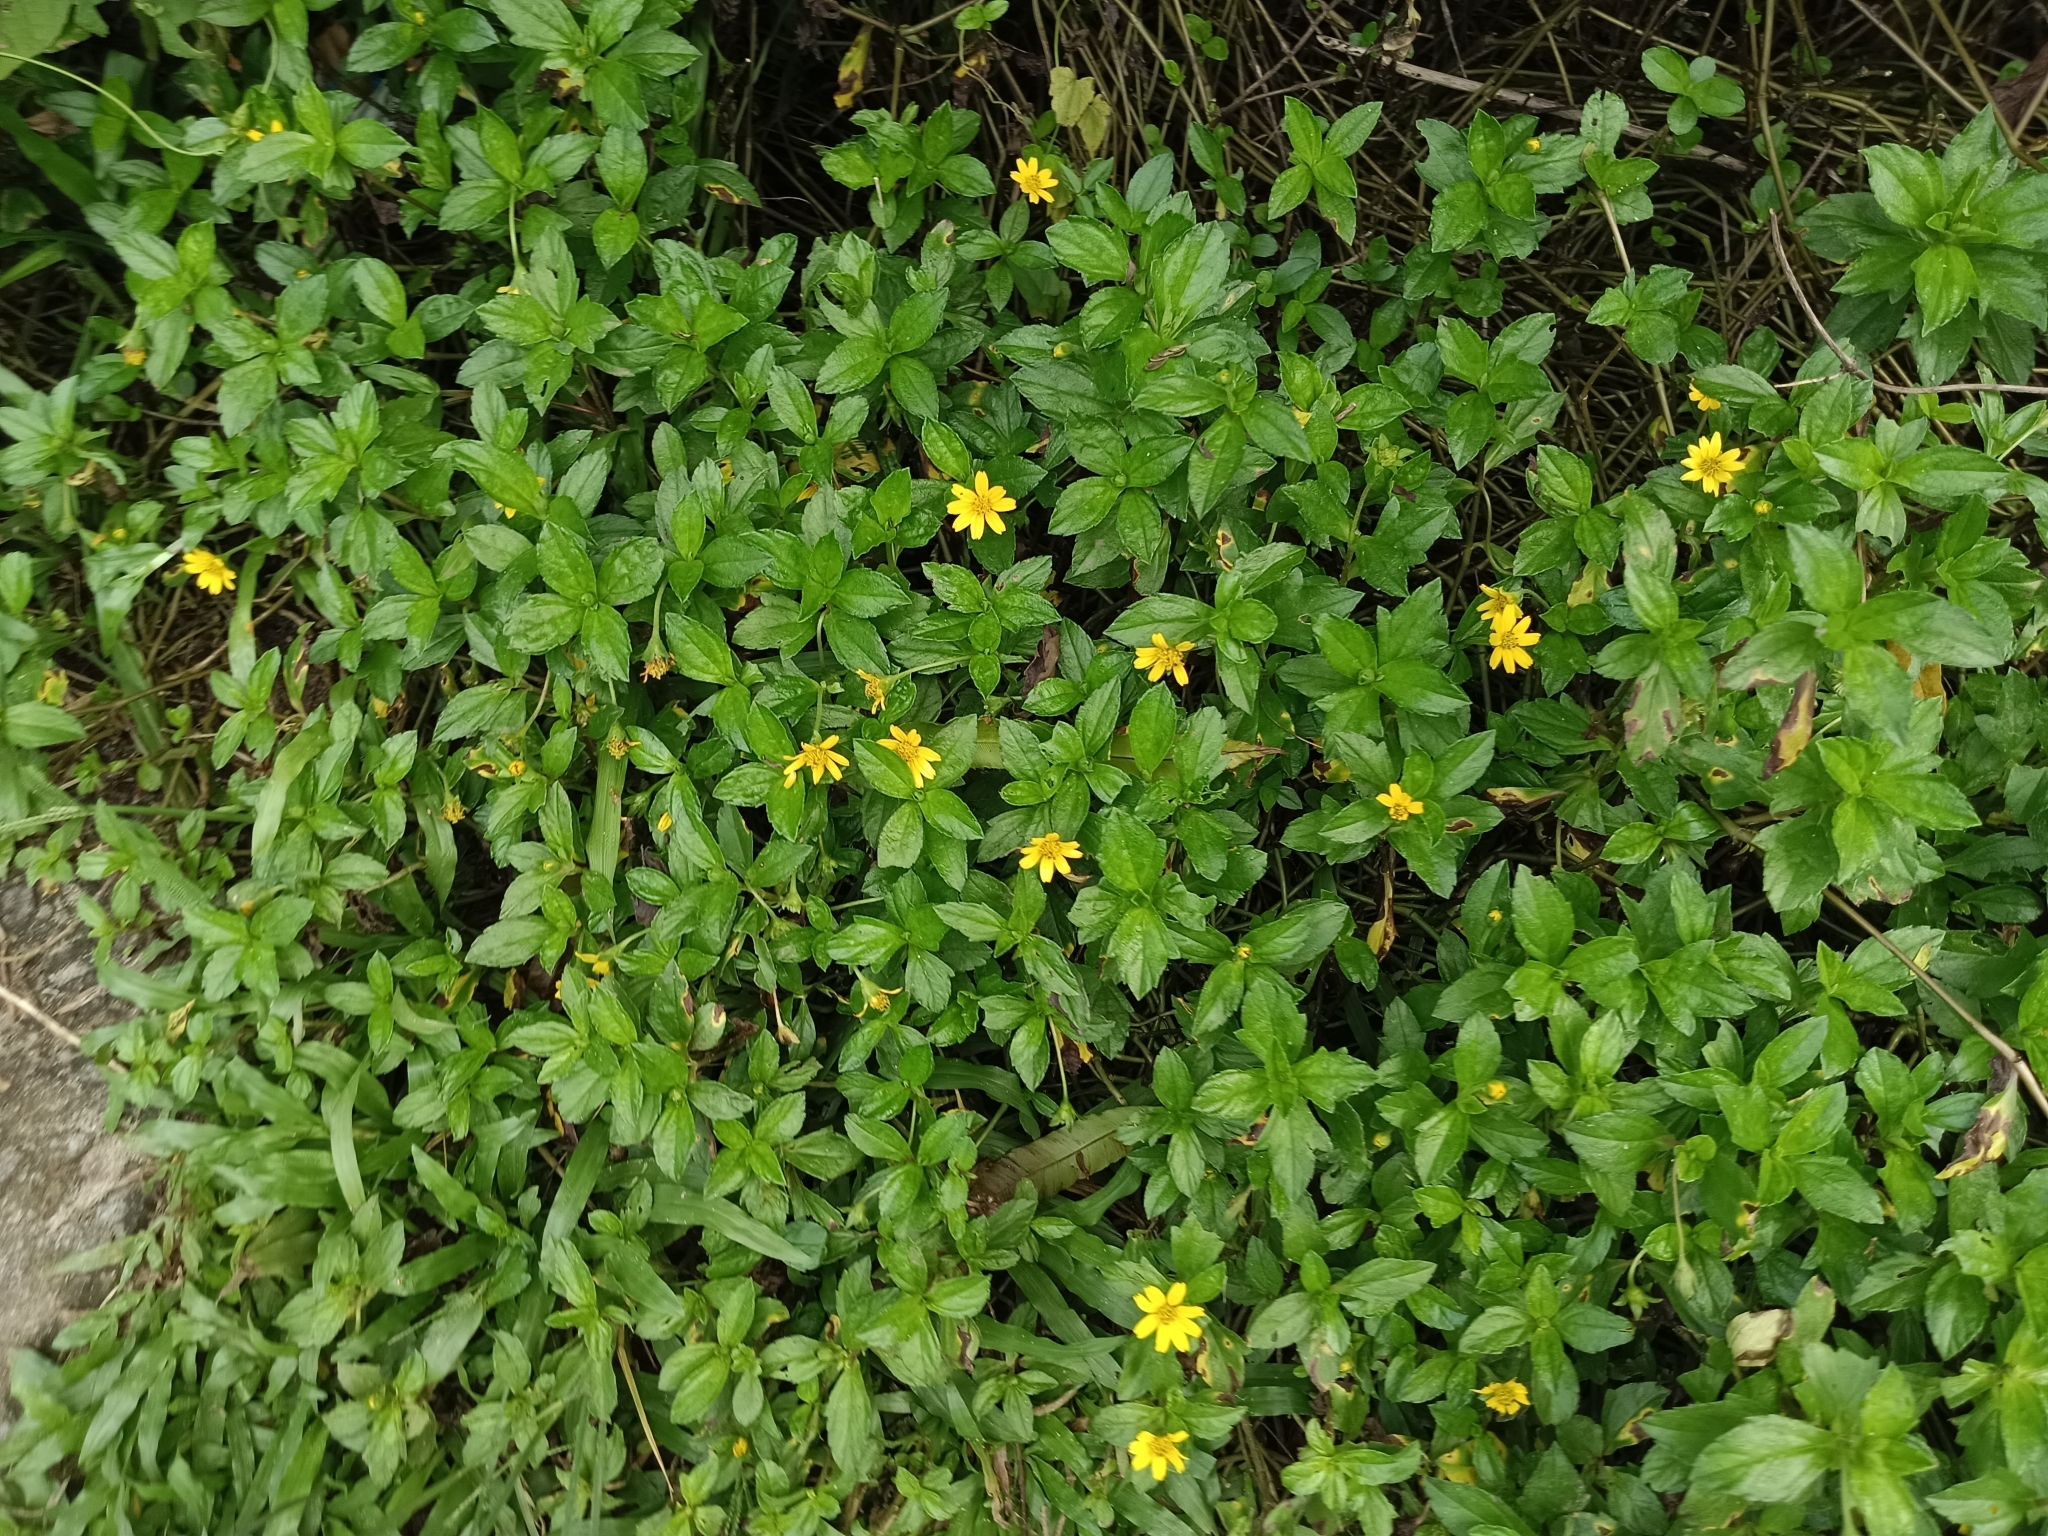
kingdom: Plantae
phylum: Tracheophyta
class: Magnoliopsida
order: Asterales
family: Asteraceae
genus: Sphagneticola
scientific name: Sphagneticola trilobata
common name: Bay biscayne creeping-oxeye
